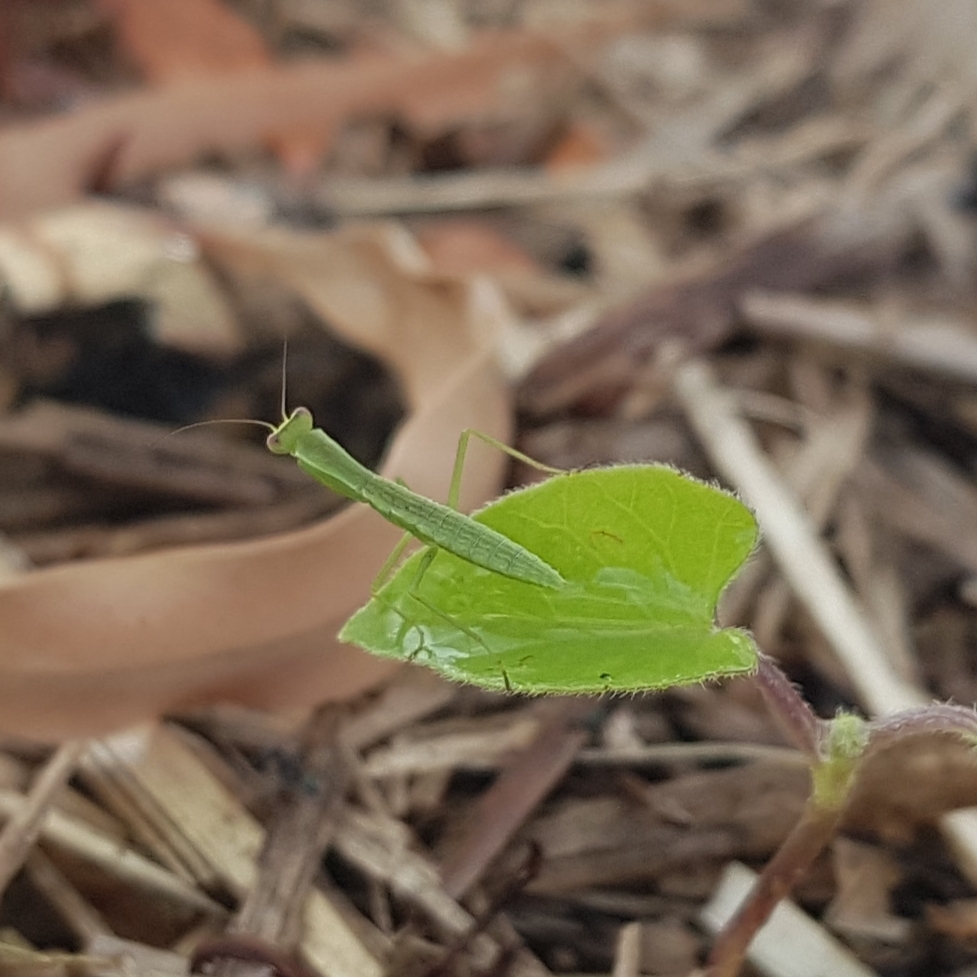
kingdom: Animalia
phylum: Arthropoda
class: Insecta
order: Mantodea
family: Mantidae
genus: Orthodera
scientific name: Orthodera ministralis
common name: Mantis
